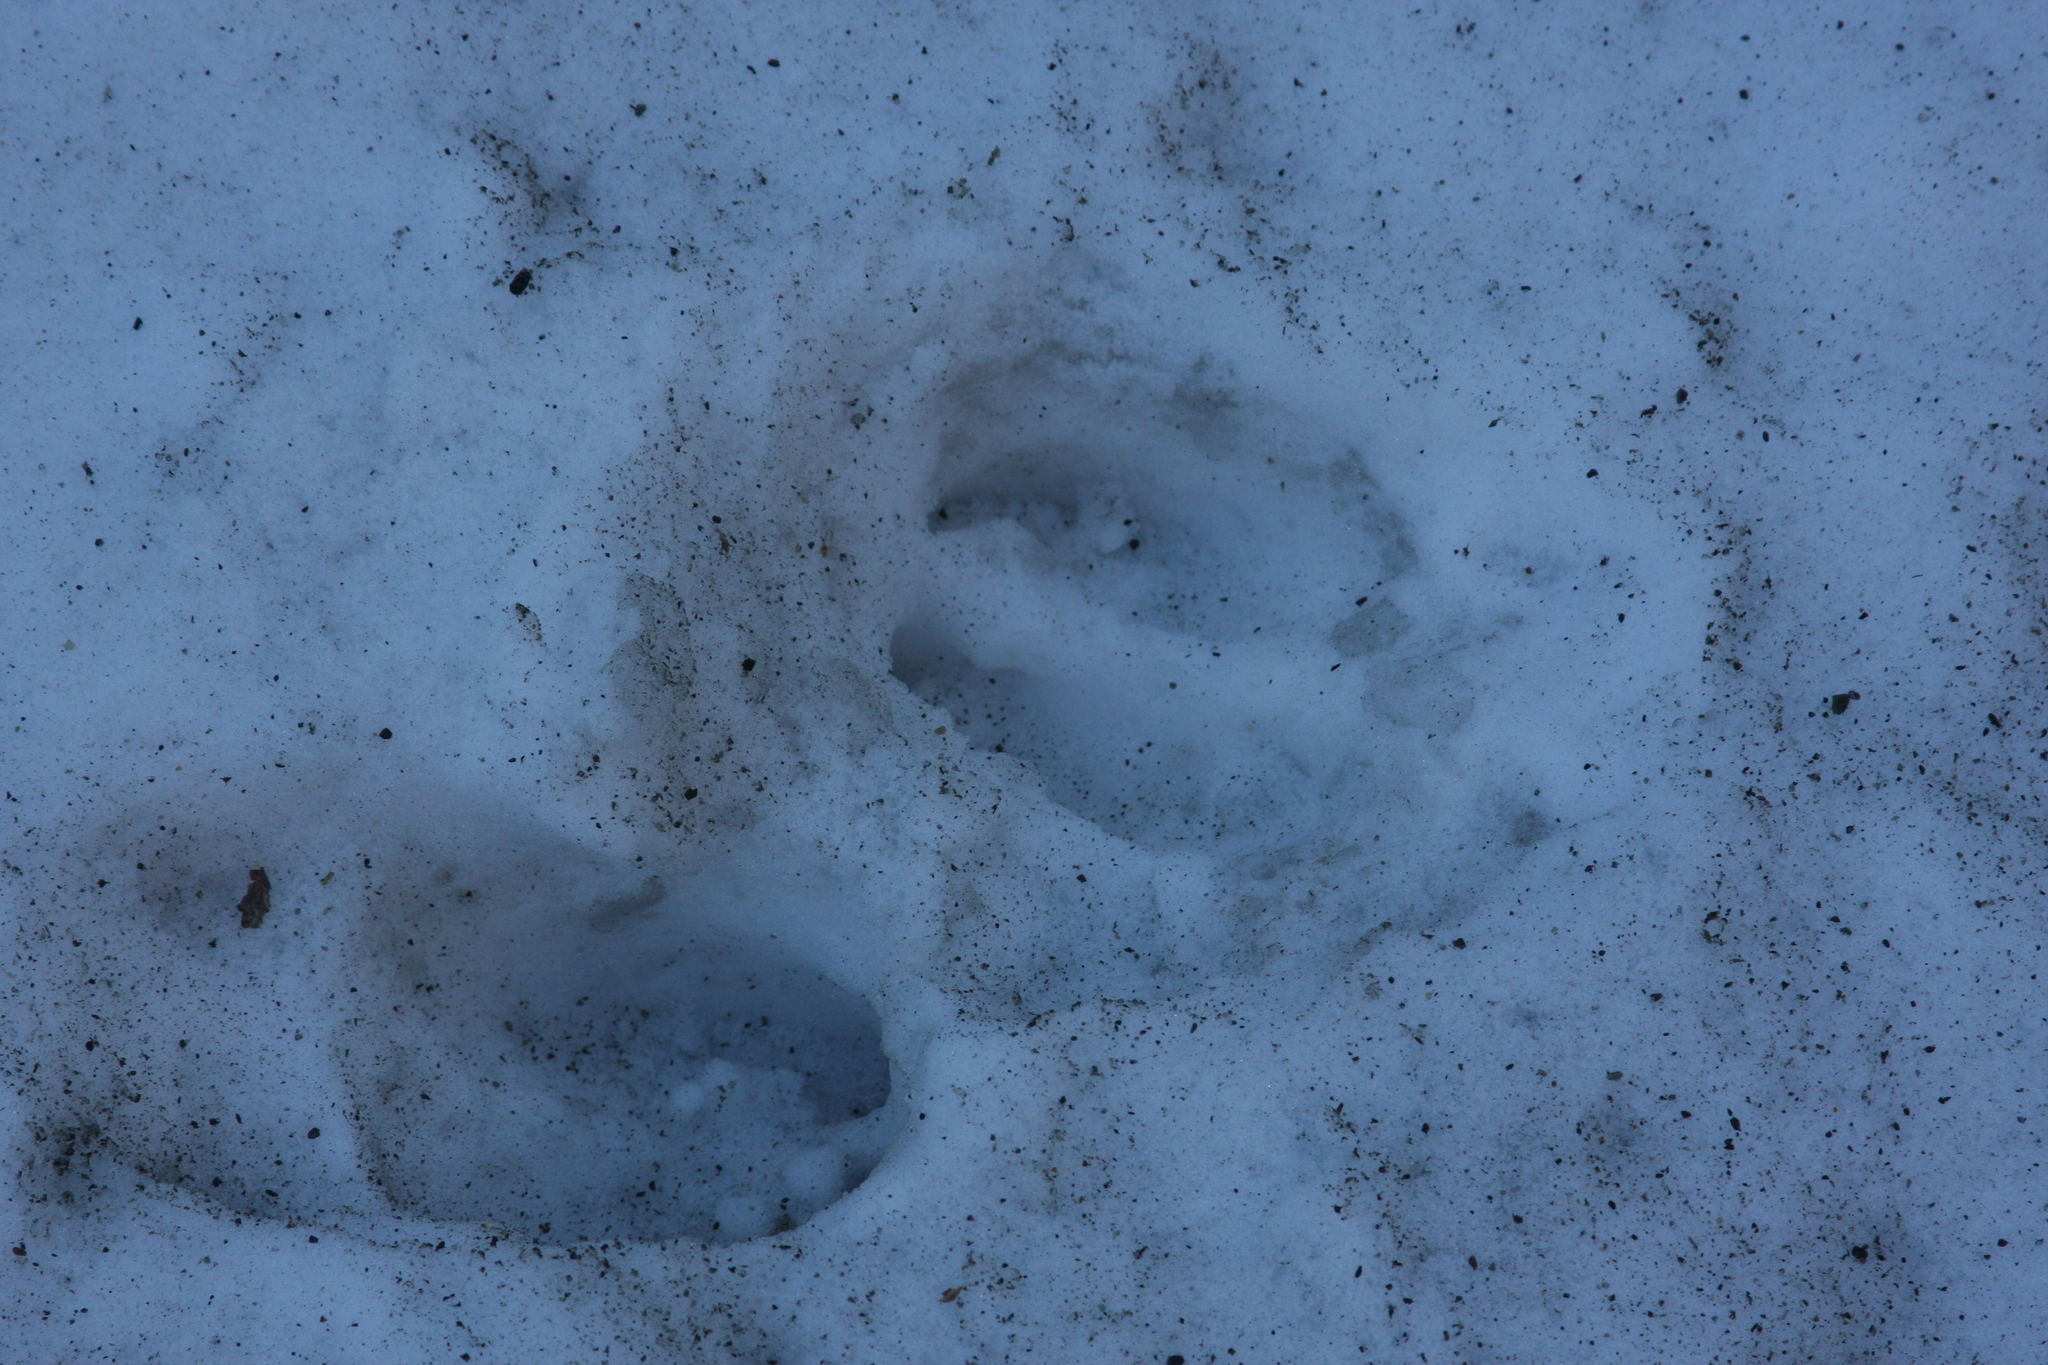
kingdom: Animalia
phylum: Chordata
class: Mammalia
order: Artiodactyla
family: Cervidae
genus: Odocoileus
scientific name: Odocoileus virginianus
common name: White-tailed deer
